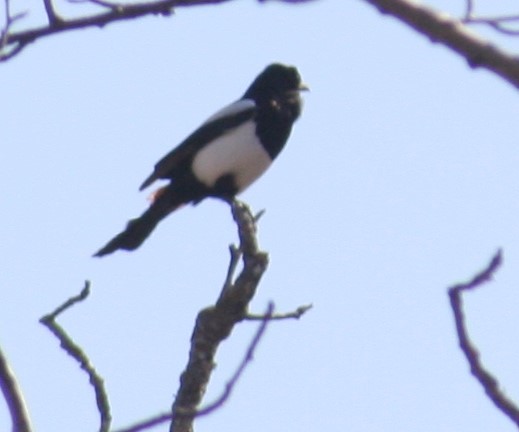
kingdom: Animalia
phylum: Chordata
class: Aves
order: Passeriformes
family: Corvidae
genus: Pica
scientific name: Pica hudsonia
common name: Black-billed magpie
